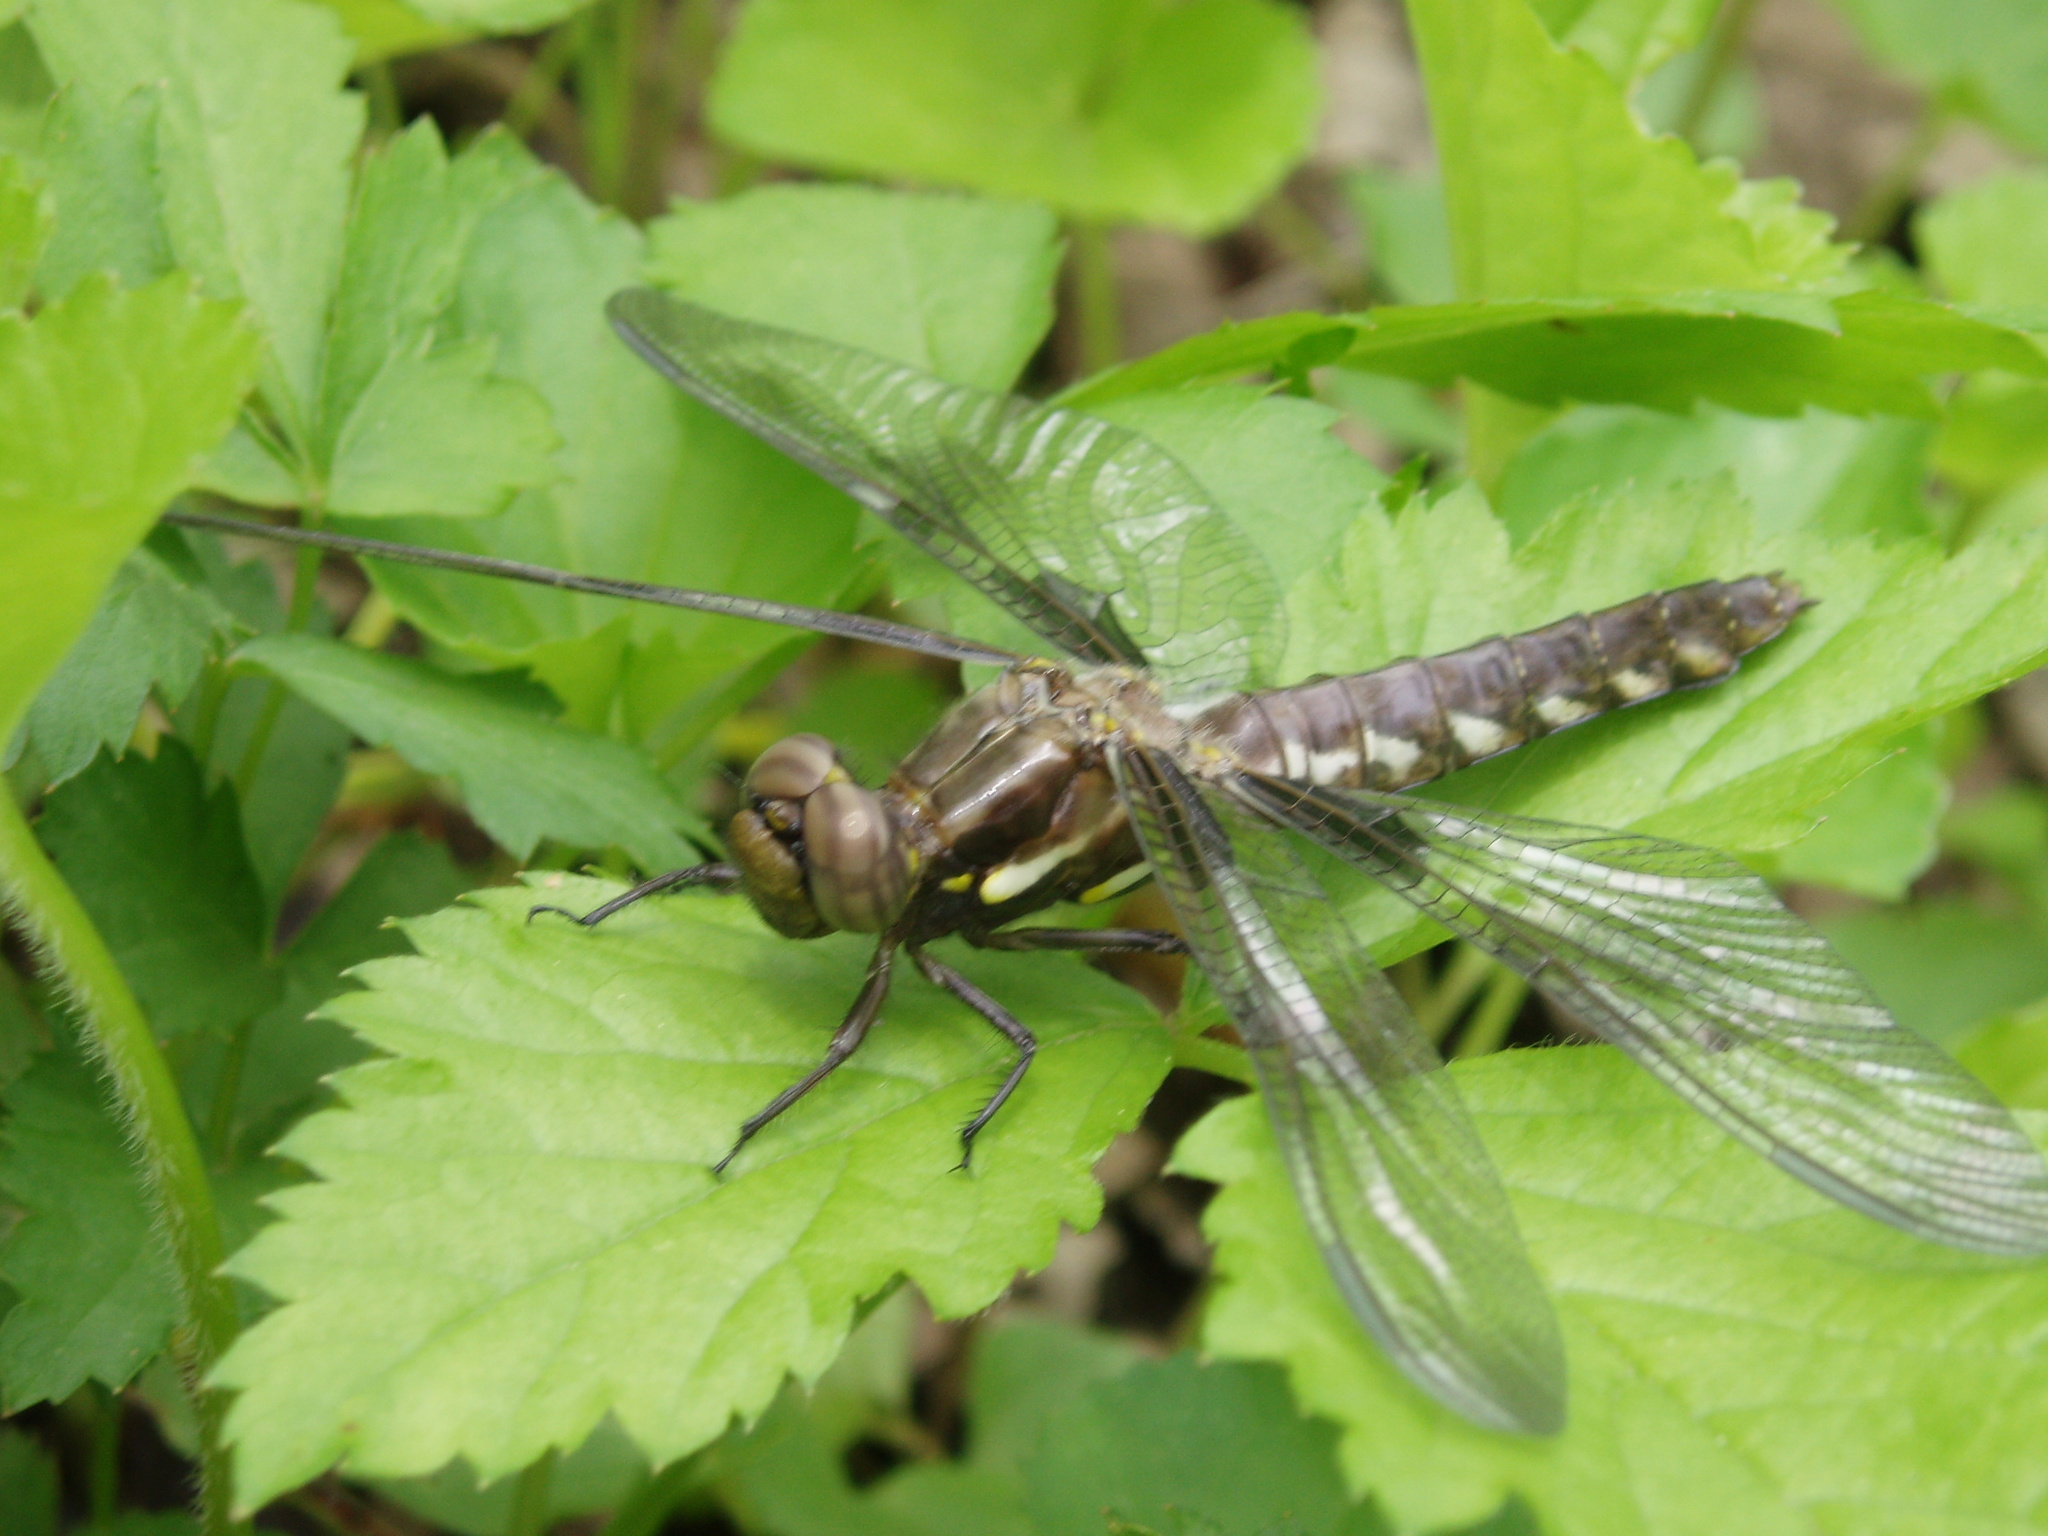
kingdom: Animalia
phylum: Arthropoda
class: Insecta
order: Odonata
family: Libellulidae
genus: Plathemis
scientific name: Plathemis lydia
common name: Common whitetail
